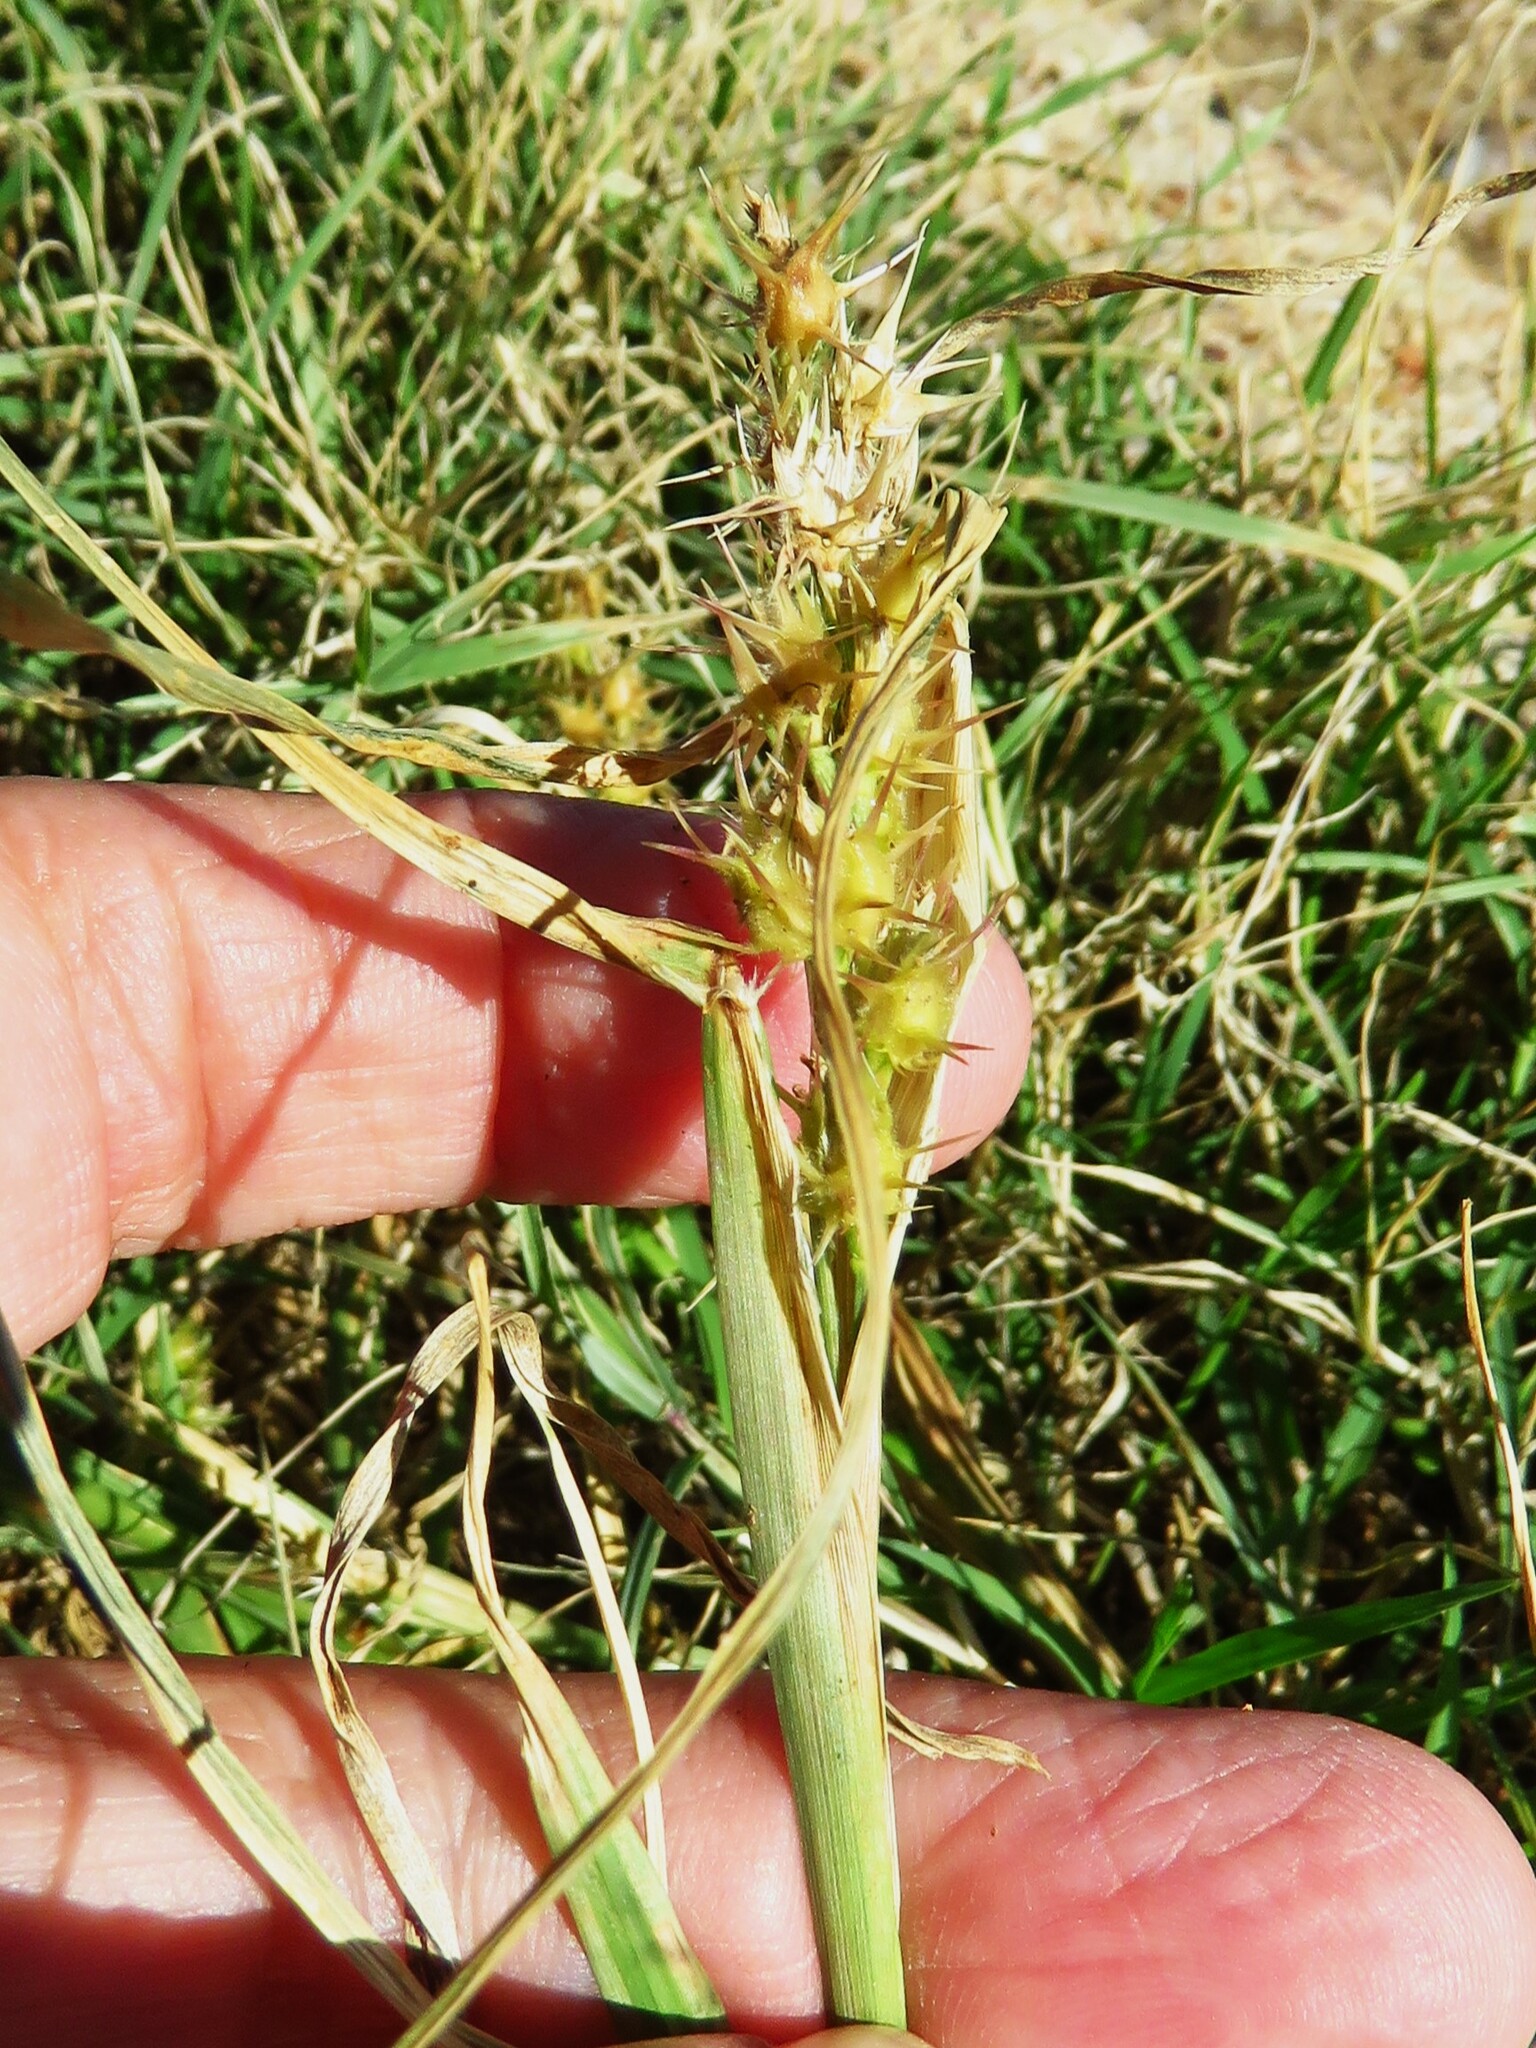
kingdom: Plantae
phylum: Tracheophyta
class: Liliopsida
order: Poales
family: Poaceae
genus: Cenchrus
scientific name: Cenchrus spinifex
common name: Coast sandbur
